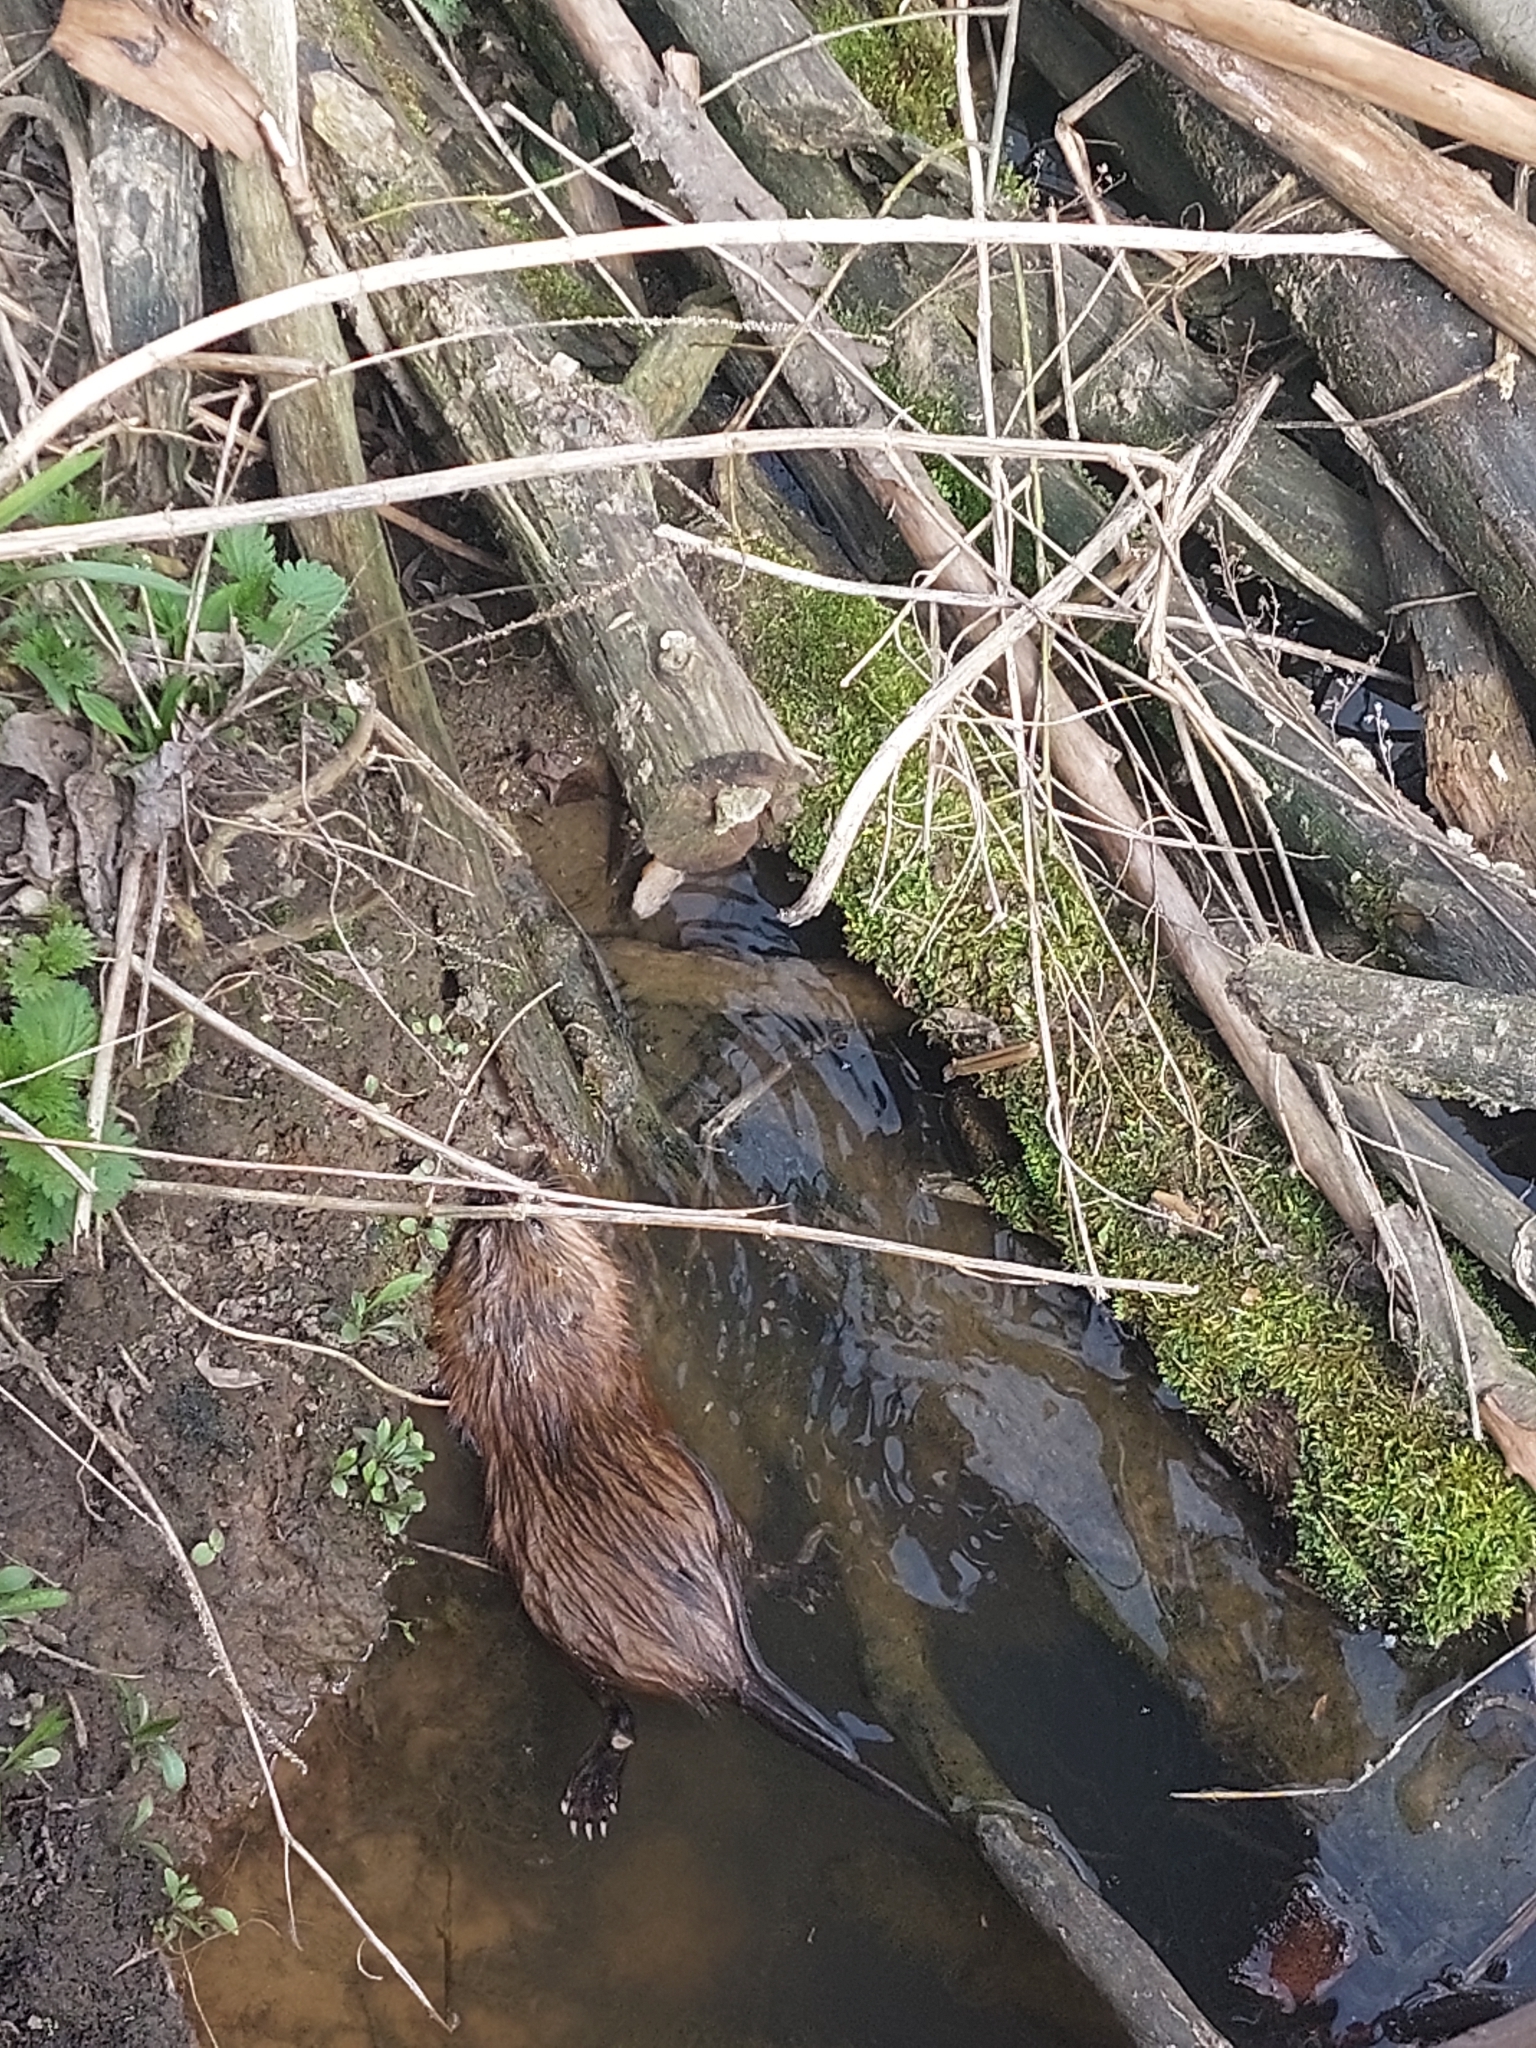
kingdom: Animalia
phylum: Chordata
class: Mammalia
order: Rodentia
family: Cricetidae
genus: Ondatra
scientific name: Ondatra zibethicus
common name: Muskrat
